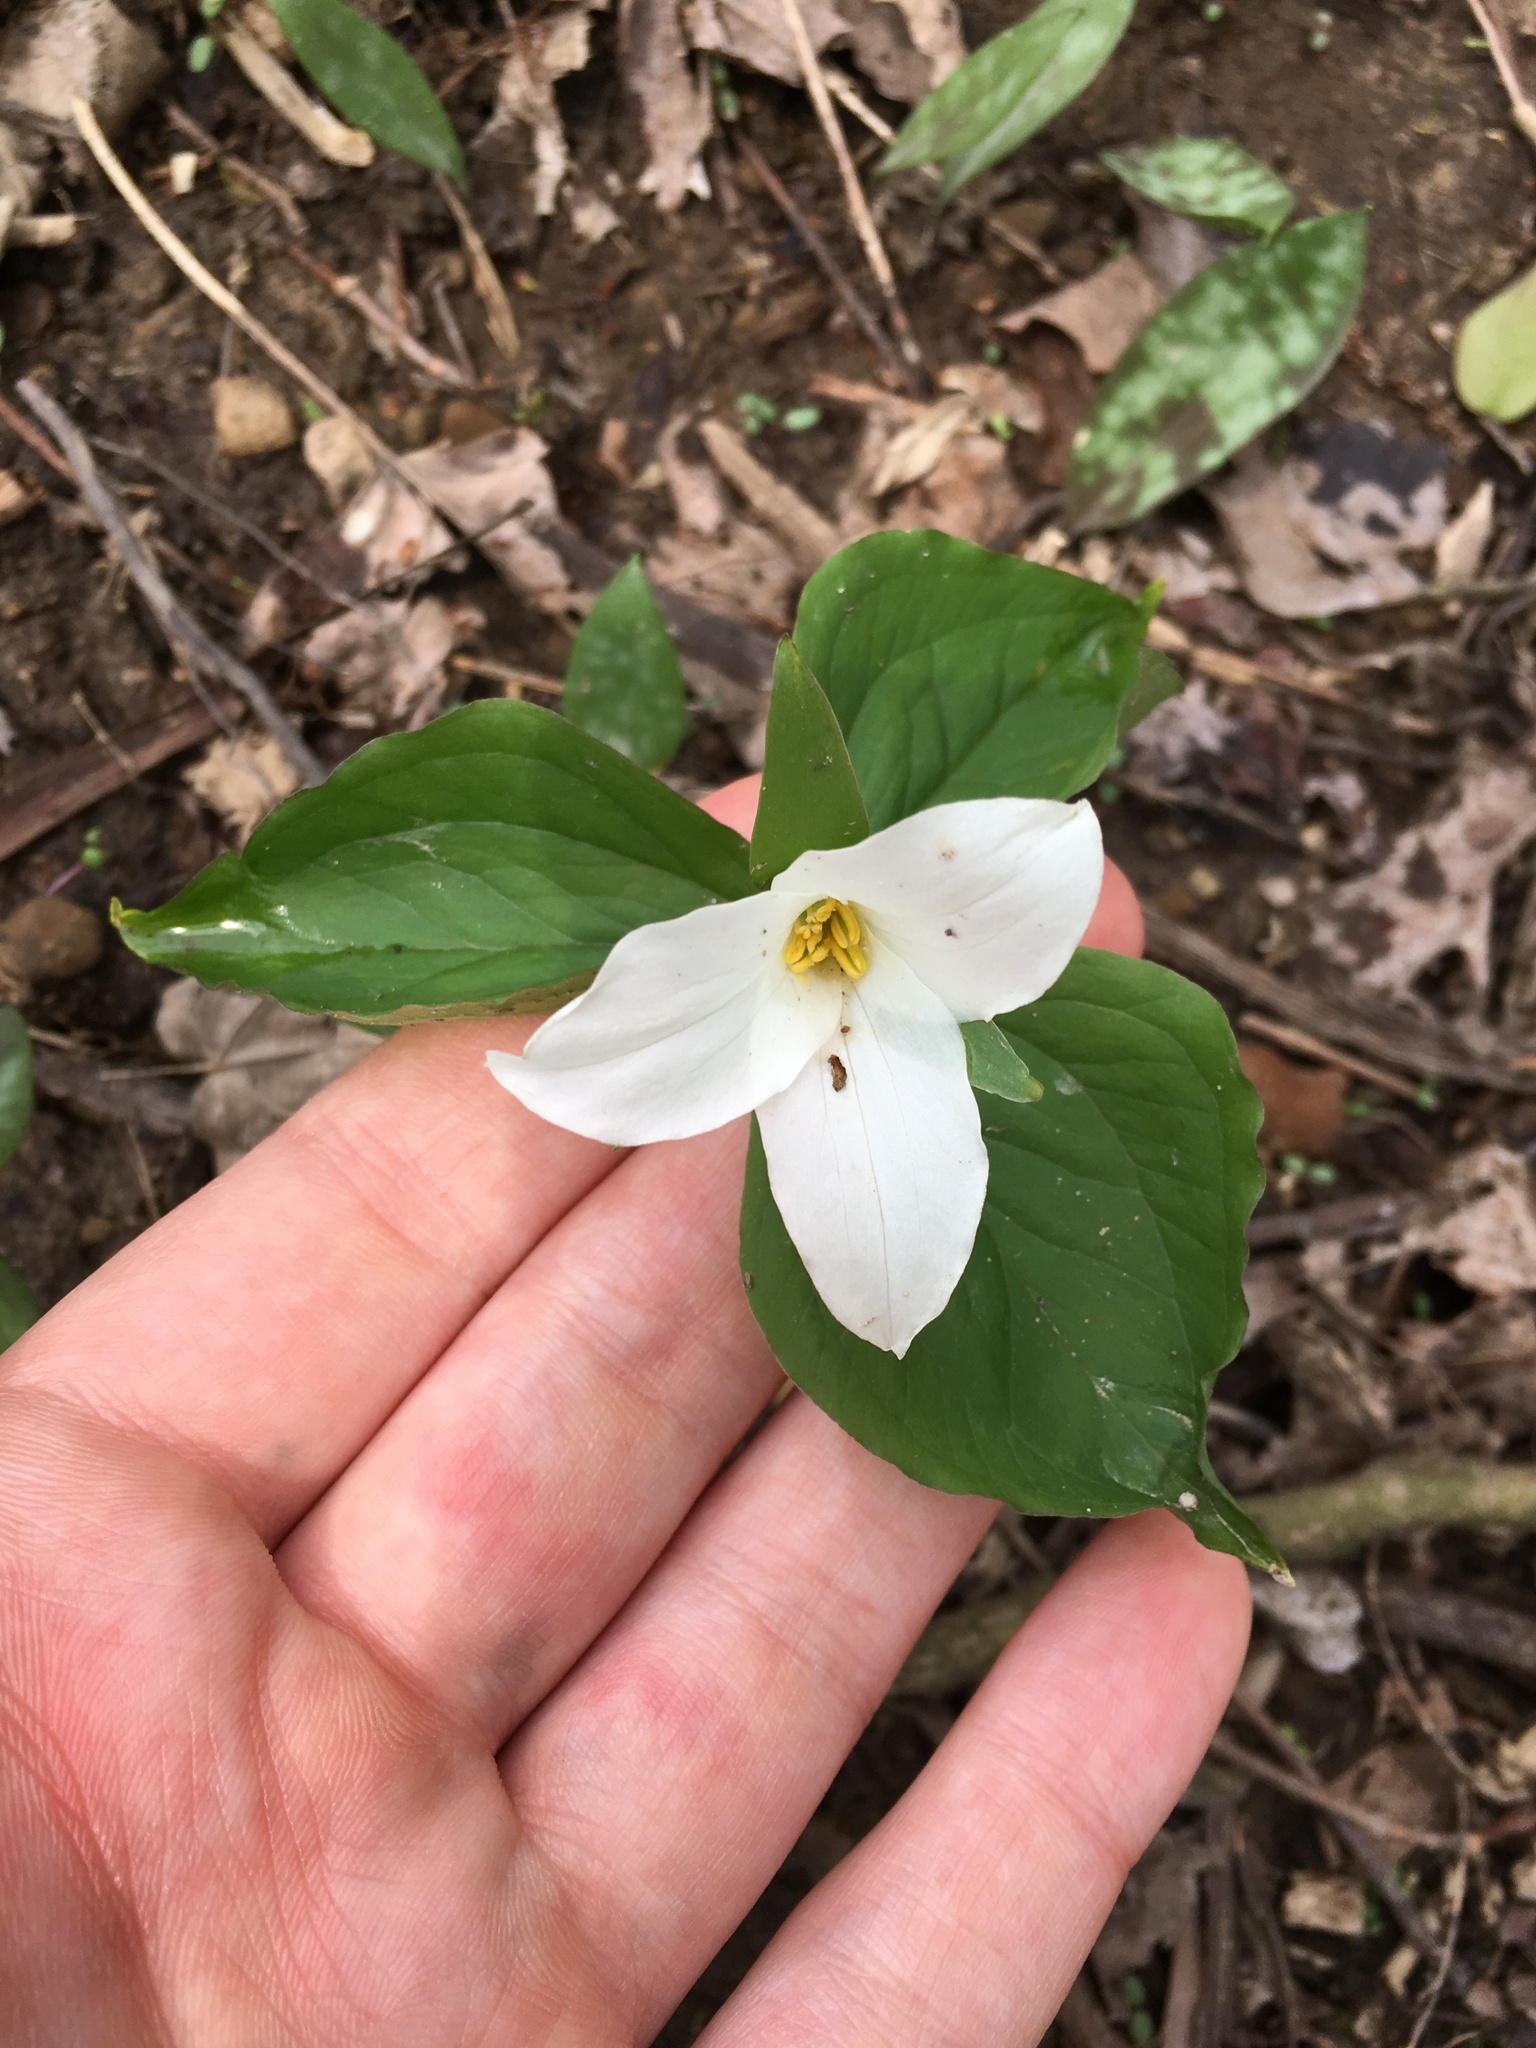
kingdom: Plantae
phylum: Tracheophyta
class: Liliopsida
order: Liliales
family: Melanthiaceae
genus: Trillium
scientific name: Trillium grandiflorum
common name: Great white trillium
